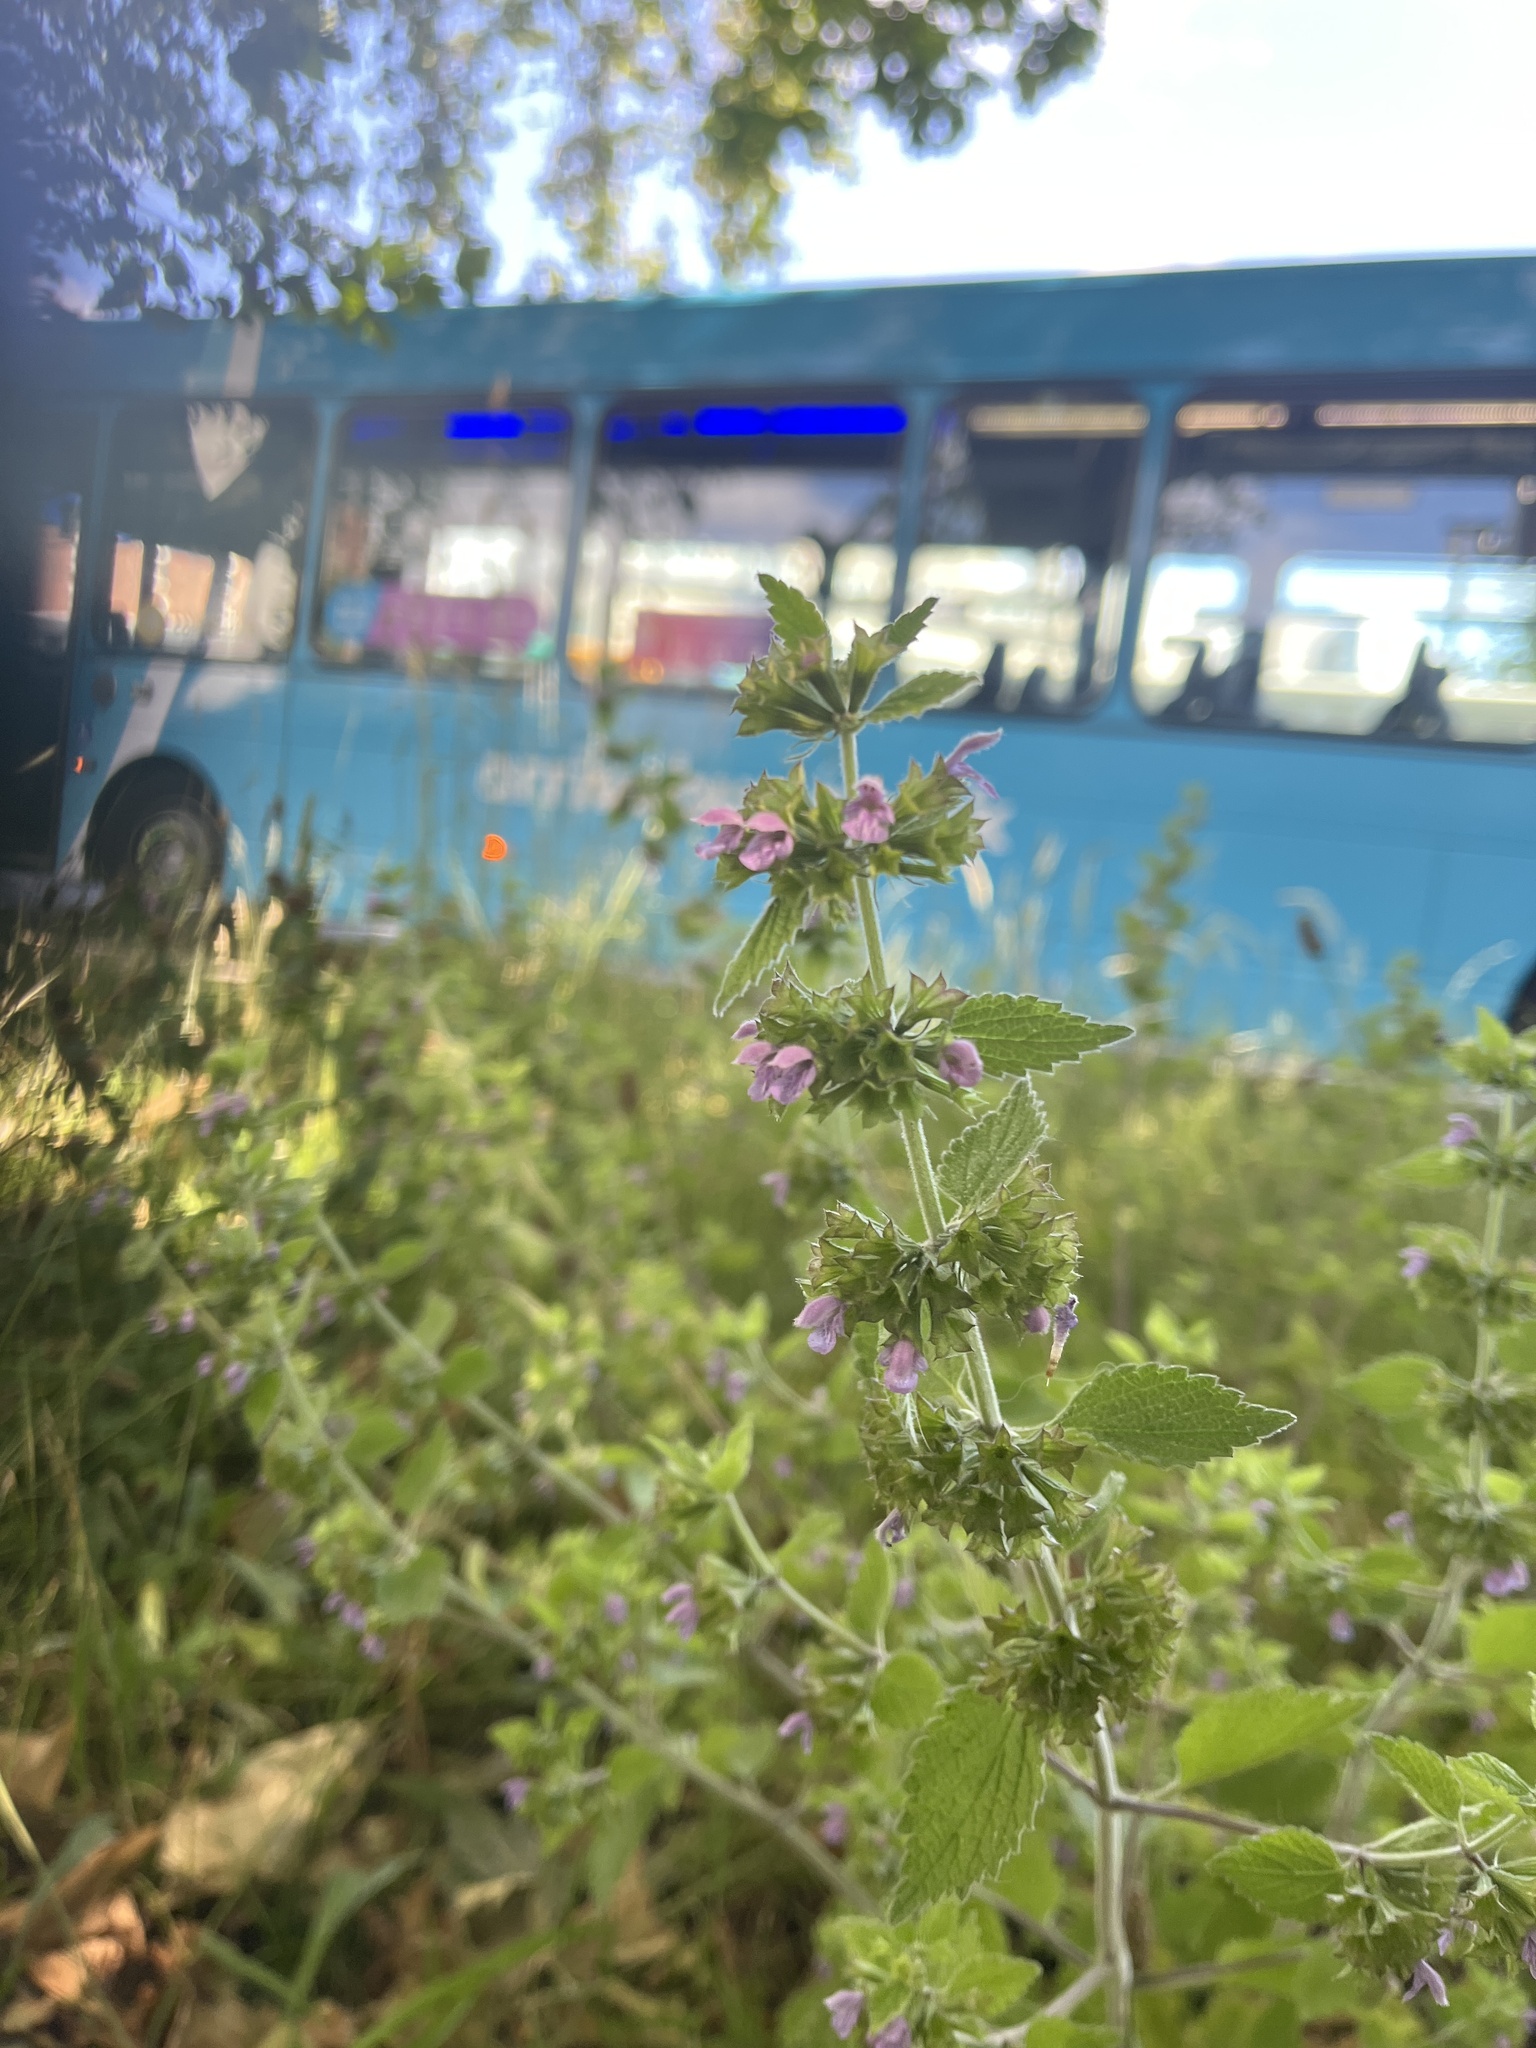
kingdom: Plantae
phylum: Tracheophyta
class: Magnoliopsida
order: Lamiales
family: Lamiaceae
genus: Ballota
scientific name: Ballota nigra
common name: Black horehound
